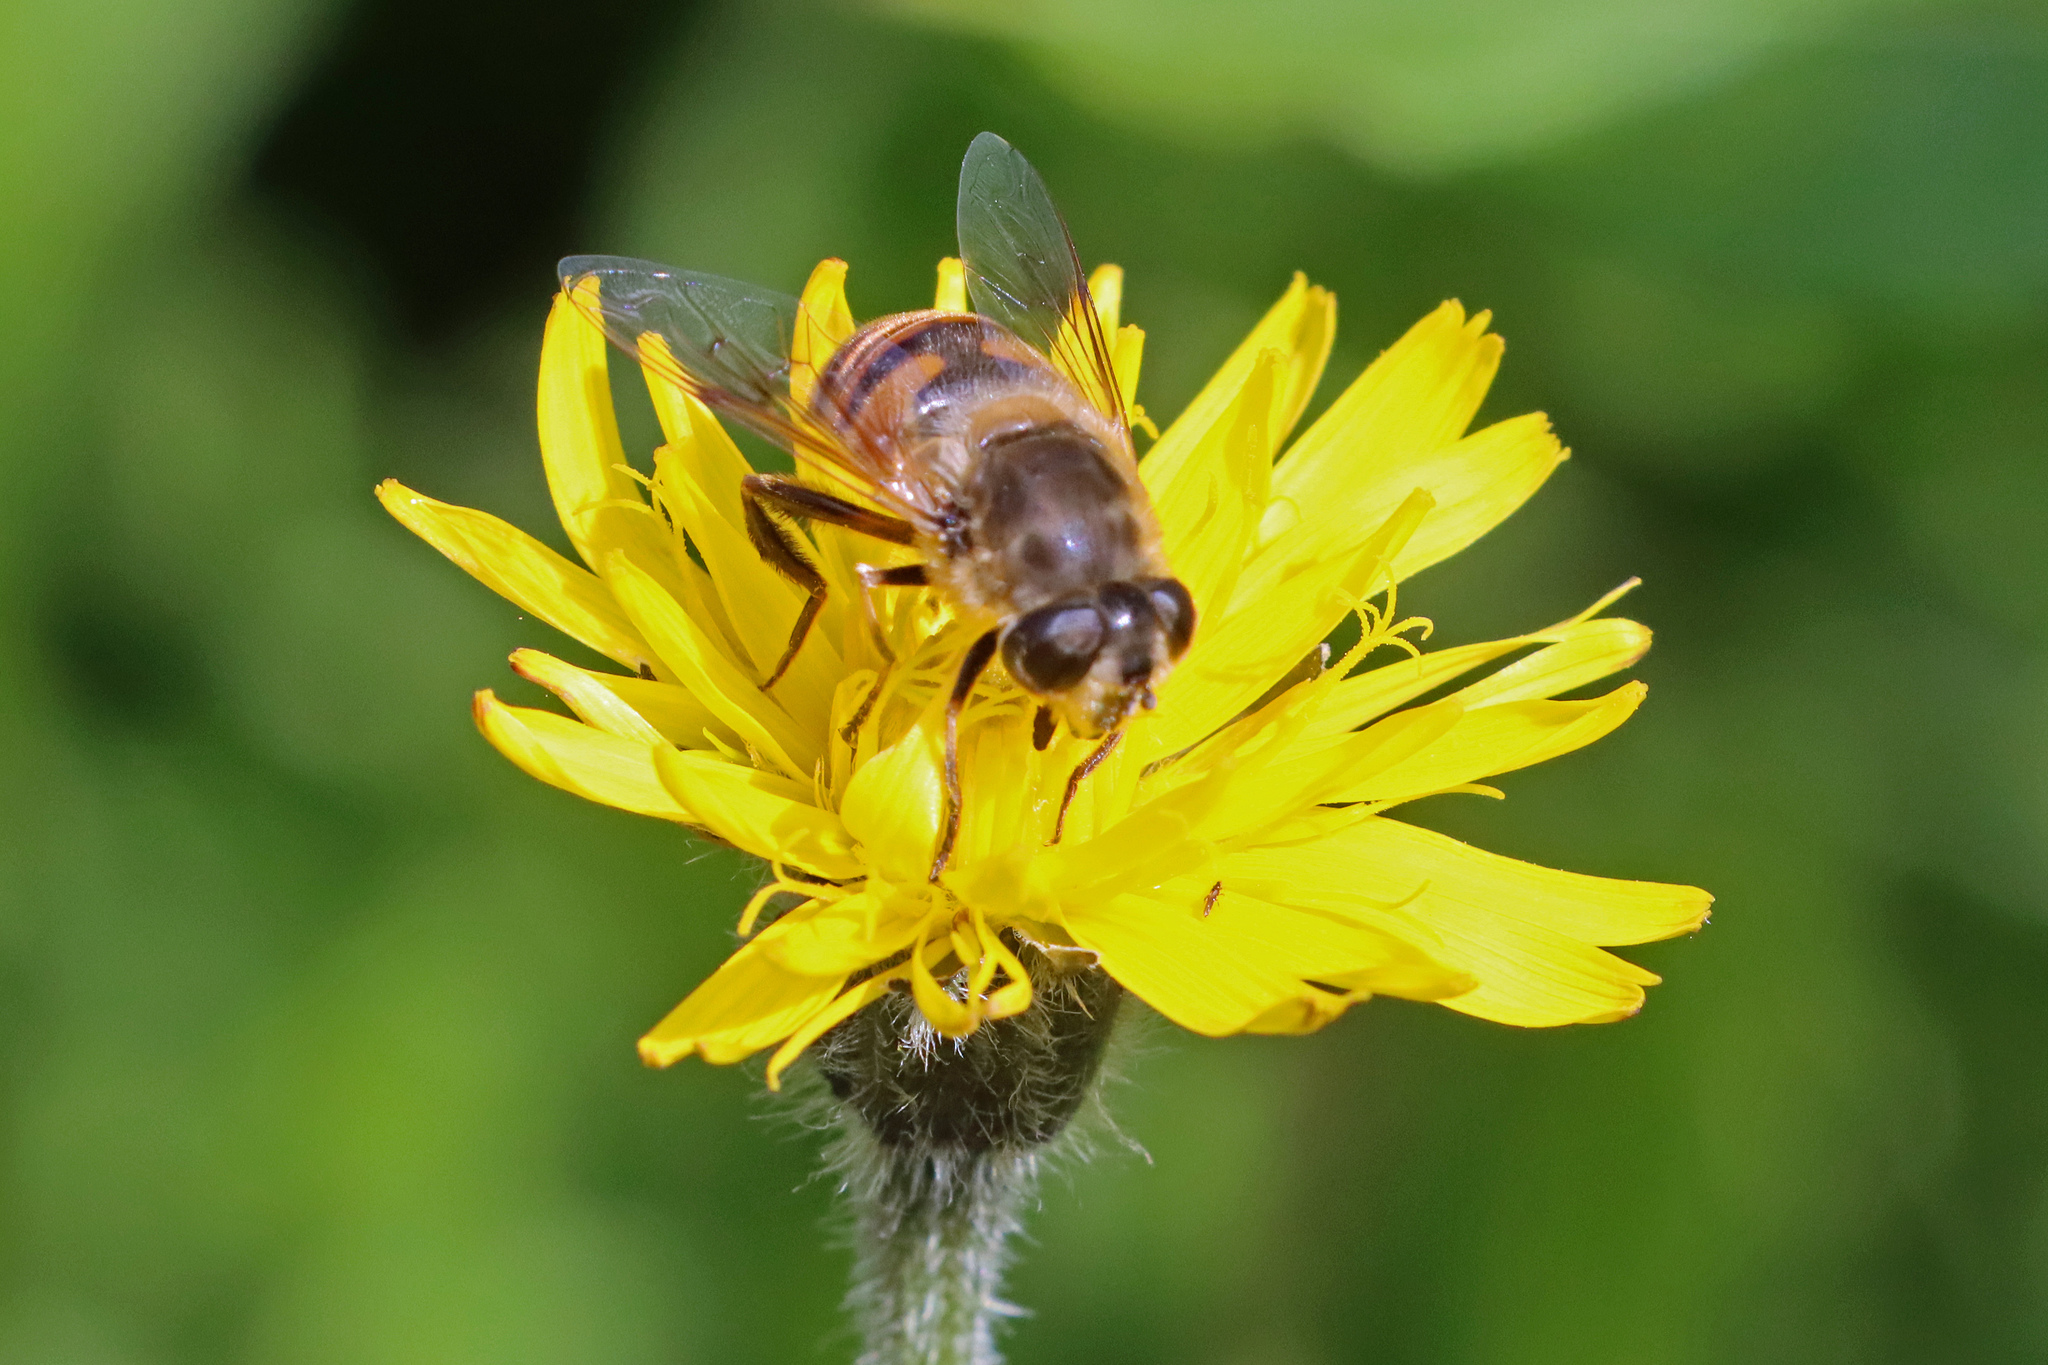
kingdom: Animalia
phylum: Arthropoda
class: Insecta
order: Diptera
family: Syrphidae
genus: Eristalis
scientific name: Eristalis tenax
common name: Drone fly
